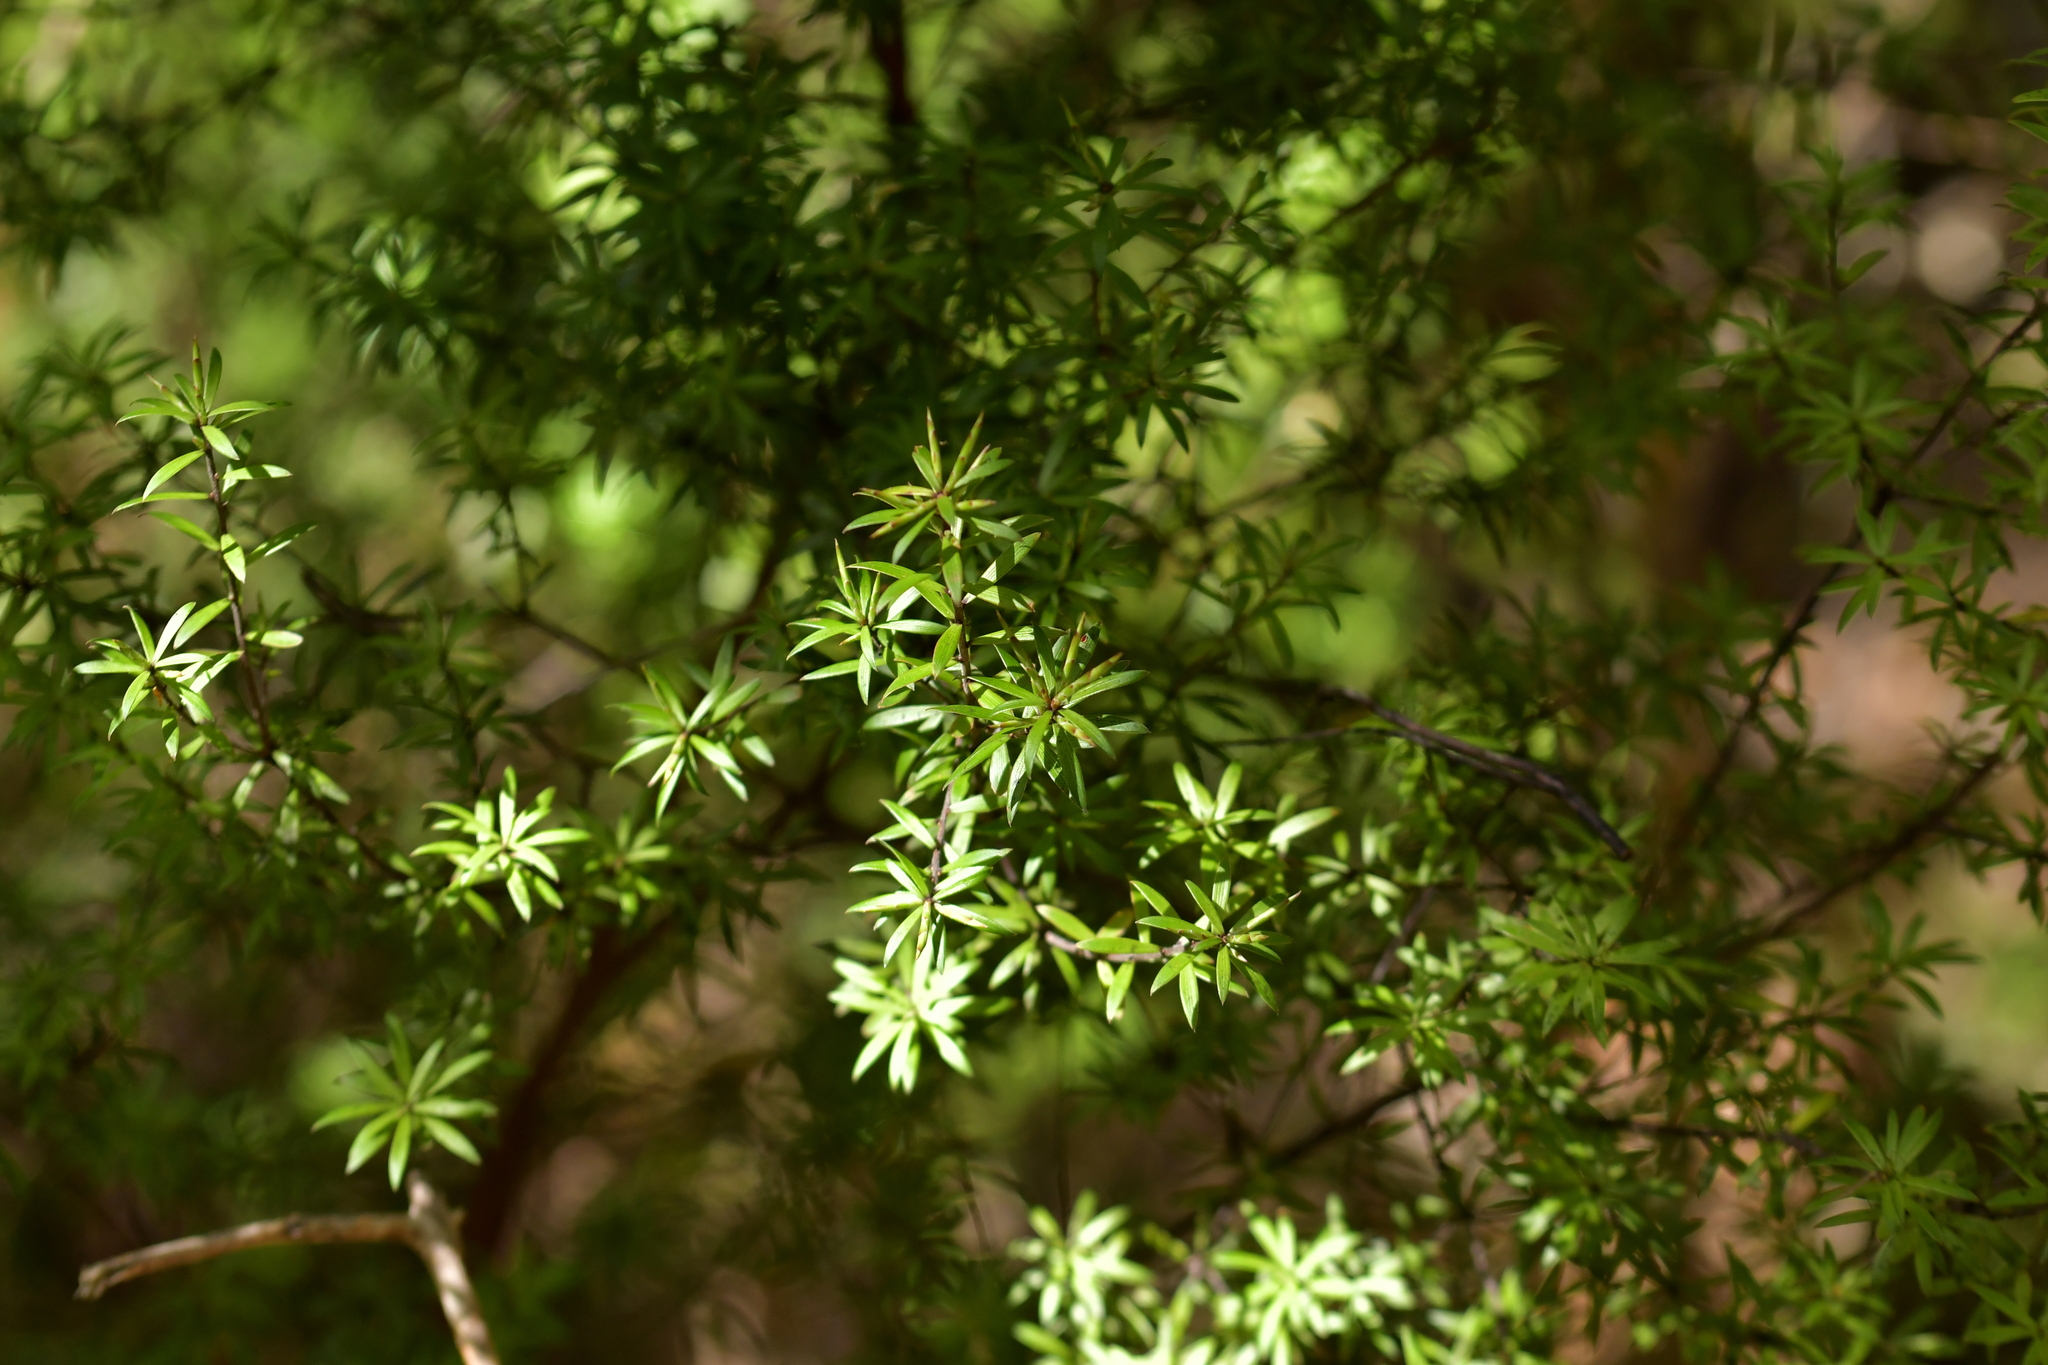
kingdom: Plantae
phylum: Tracheophyta
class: Magnoliopsida
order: Ericales
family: Ericaceae
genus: Leucopogon
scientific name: Leucopogon fasciculatus
